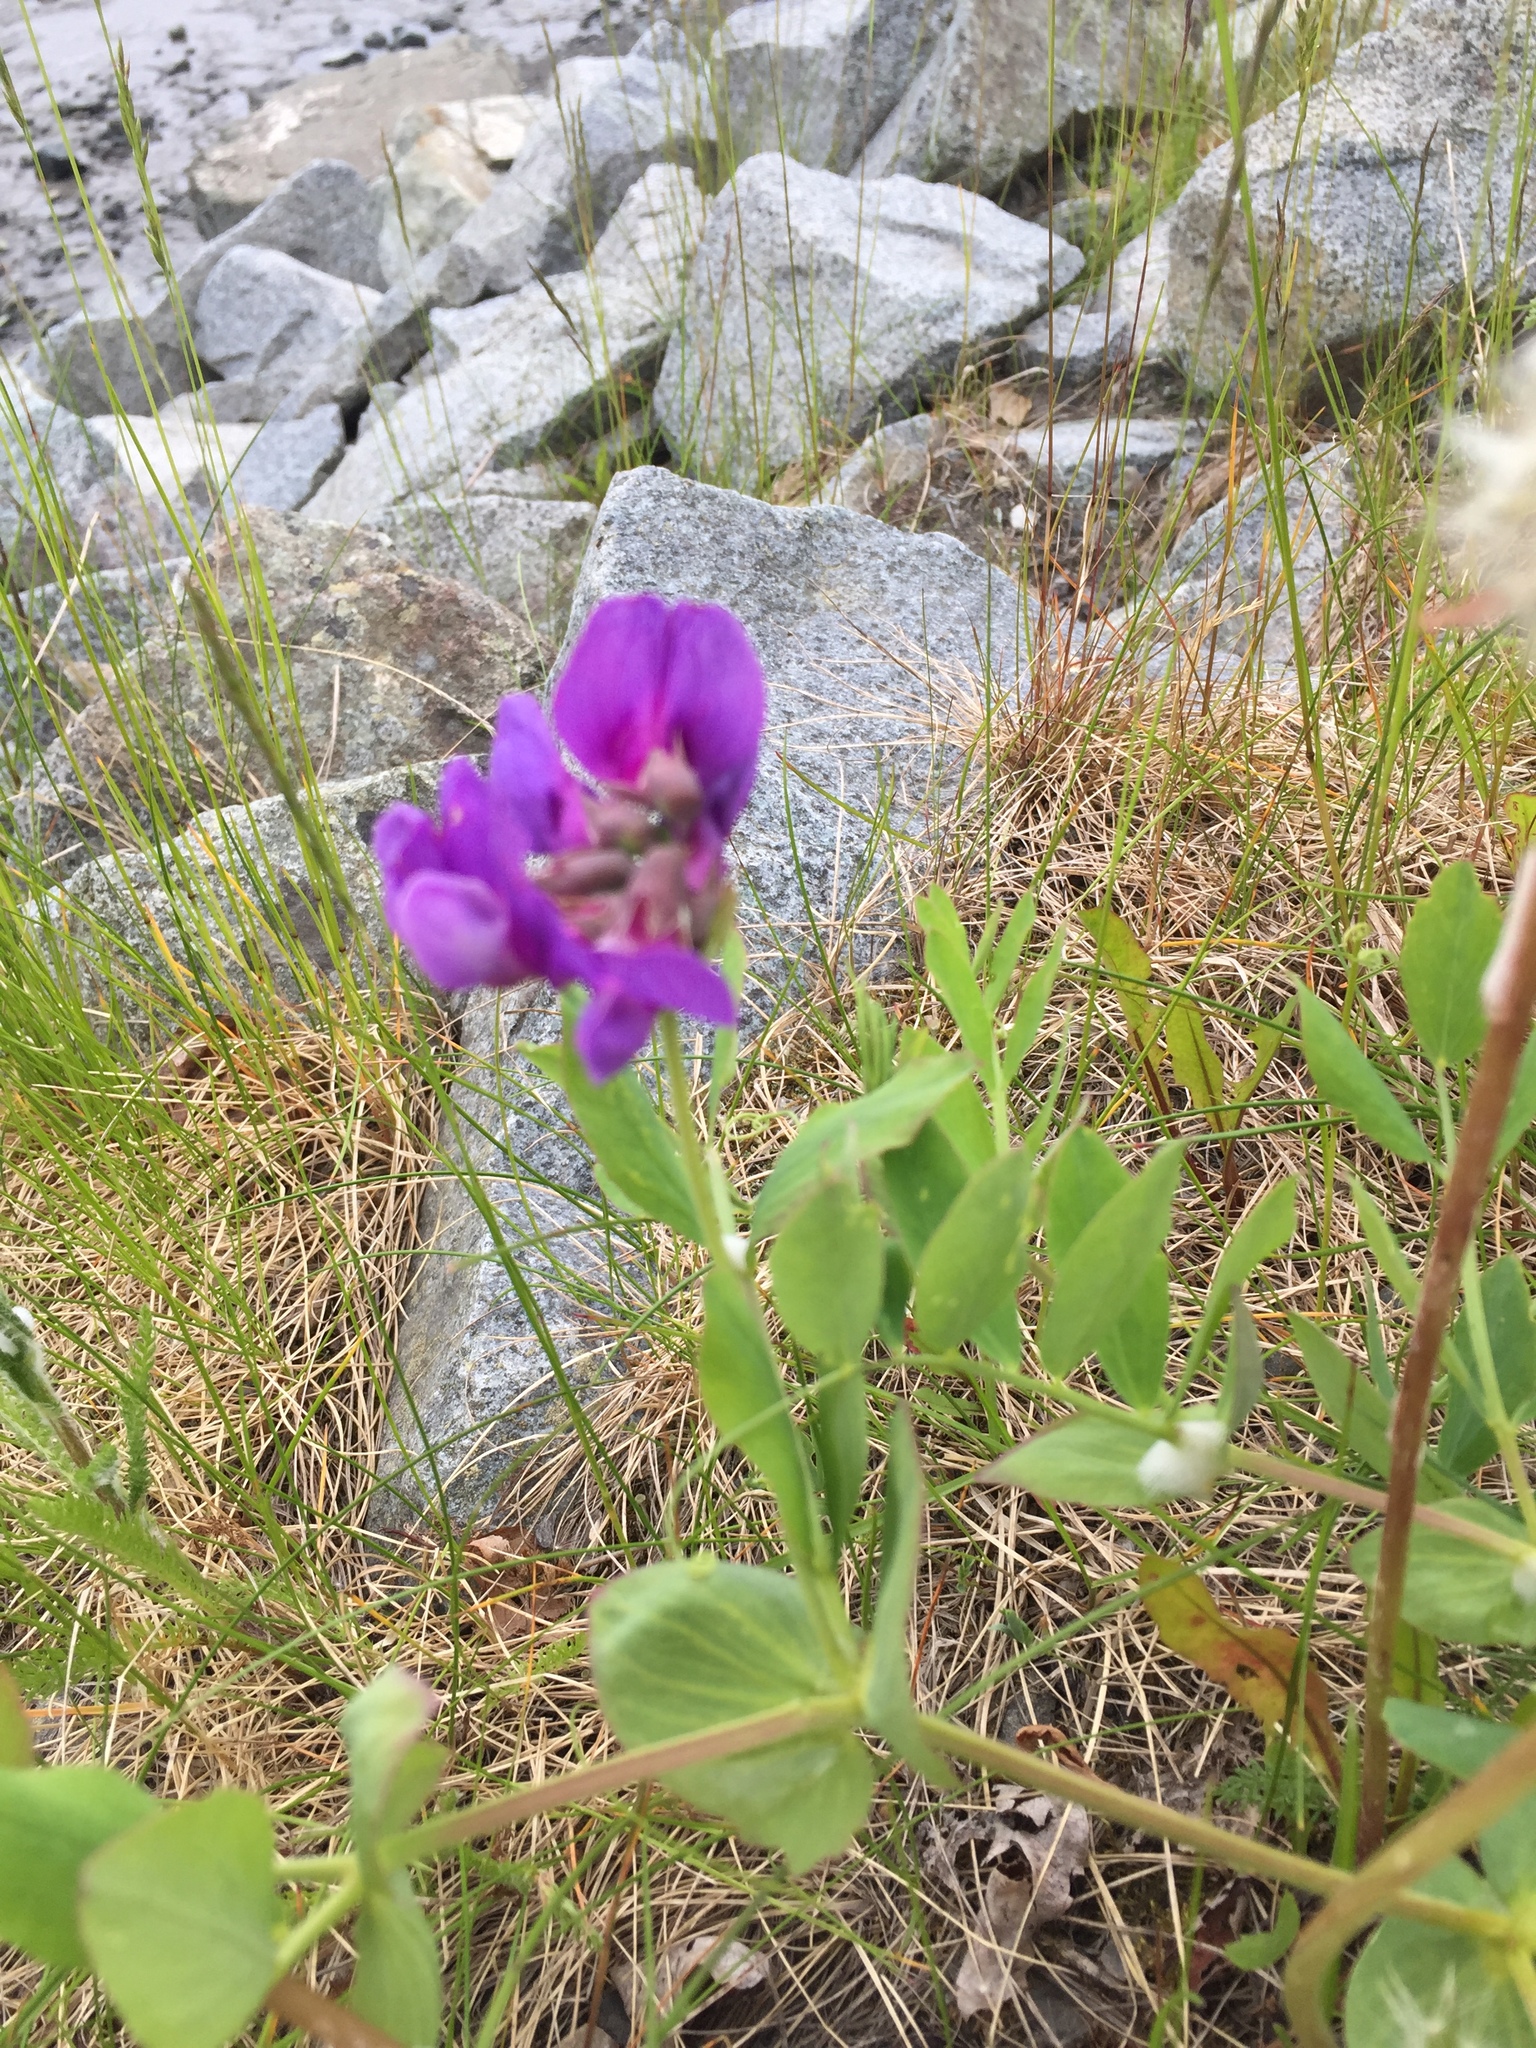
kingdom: Plantae
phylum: Tracheophyta
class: Magnoliopsida
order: Fabales
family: Fabaceae
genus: Lathyrus
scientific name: Lathyrus japonicus
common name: Sea pea
